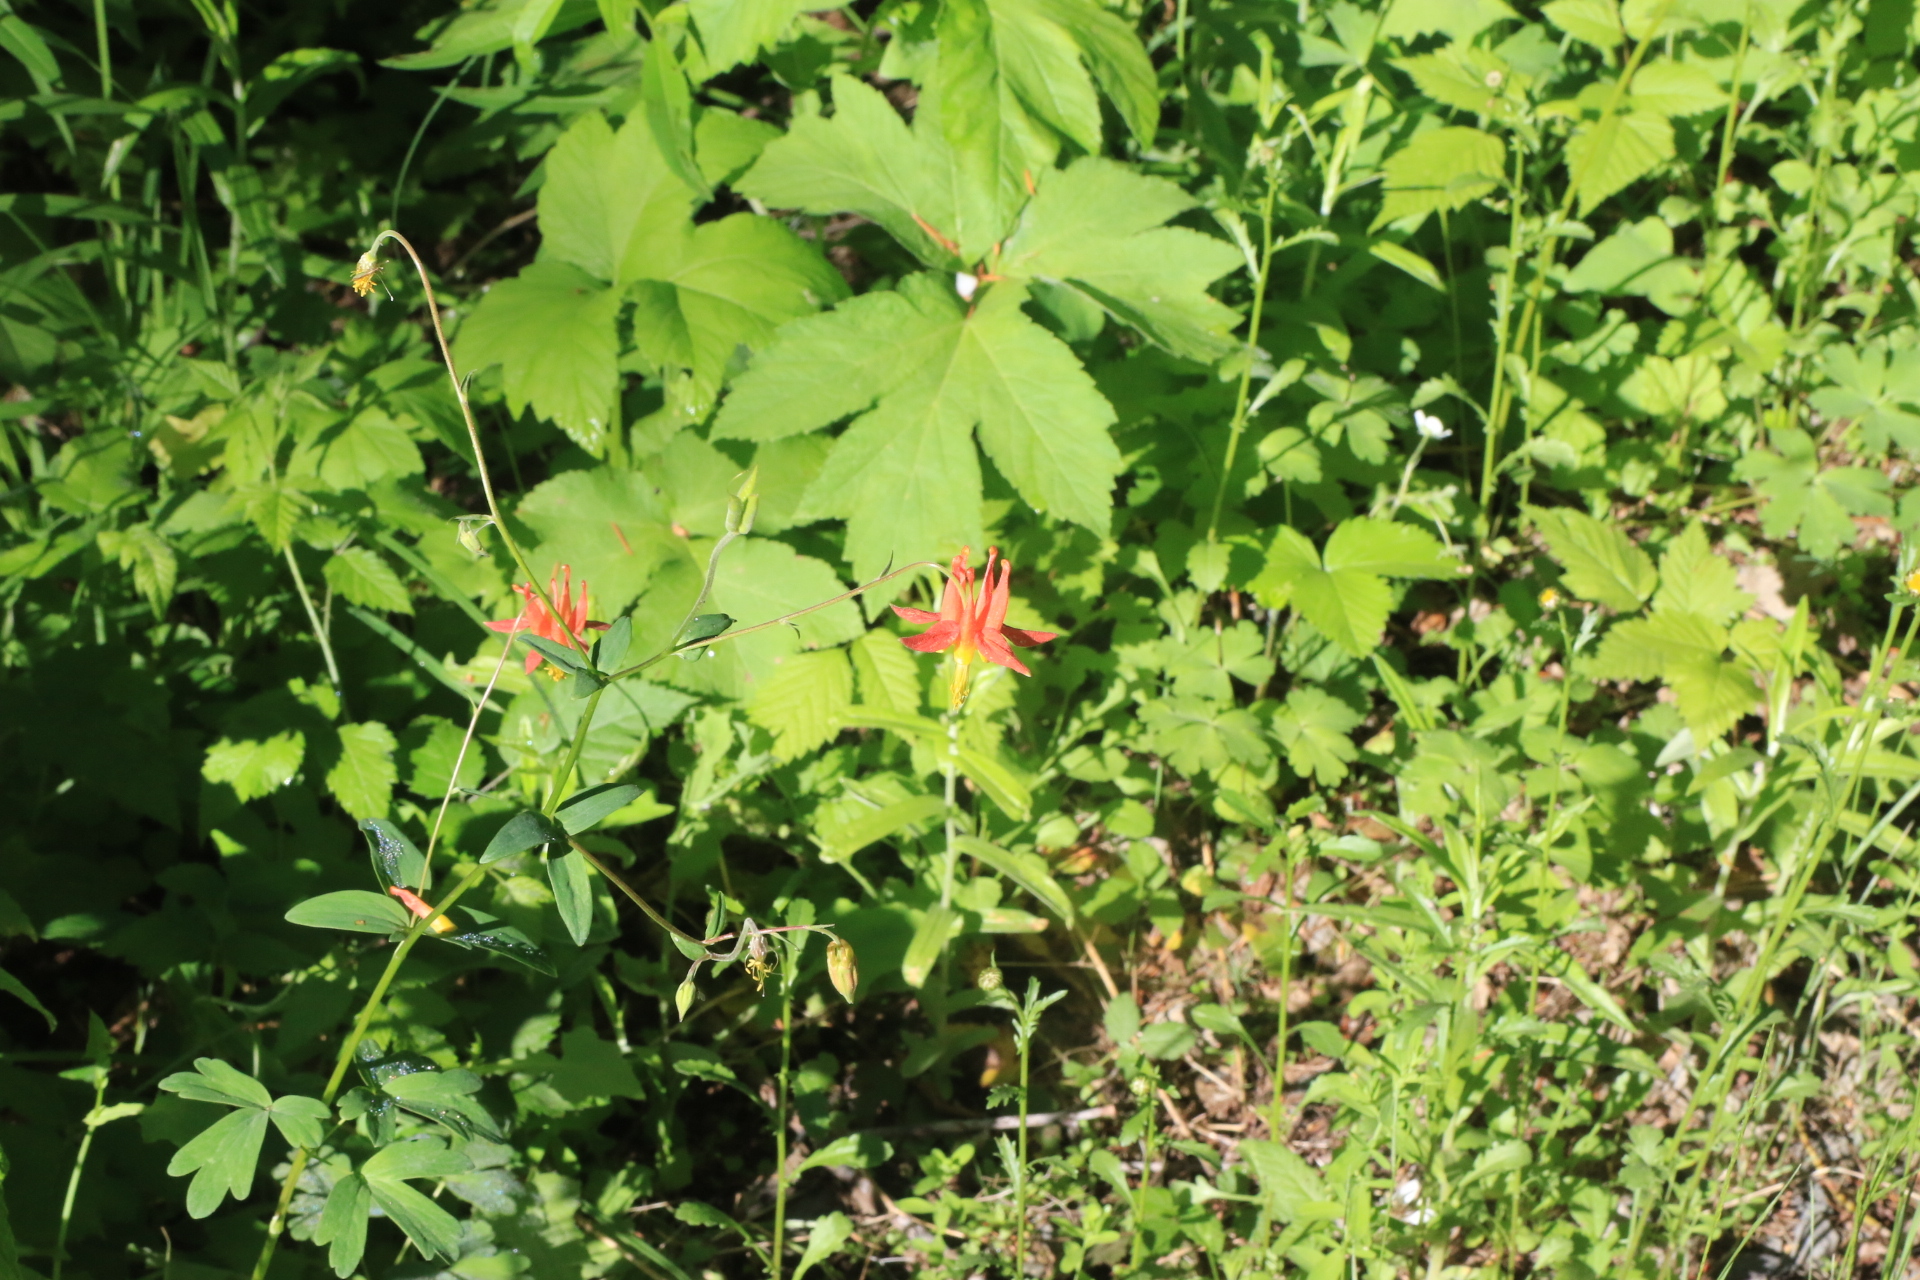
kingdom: Plantae
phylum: Tracheophyta
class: Magnoliopsida
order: Ranunculales
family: Ranunculaceae
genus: Aquilegia
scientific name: Aquilegia formosa
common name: Sitka columbine
